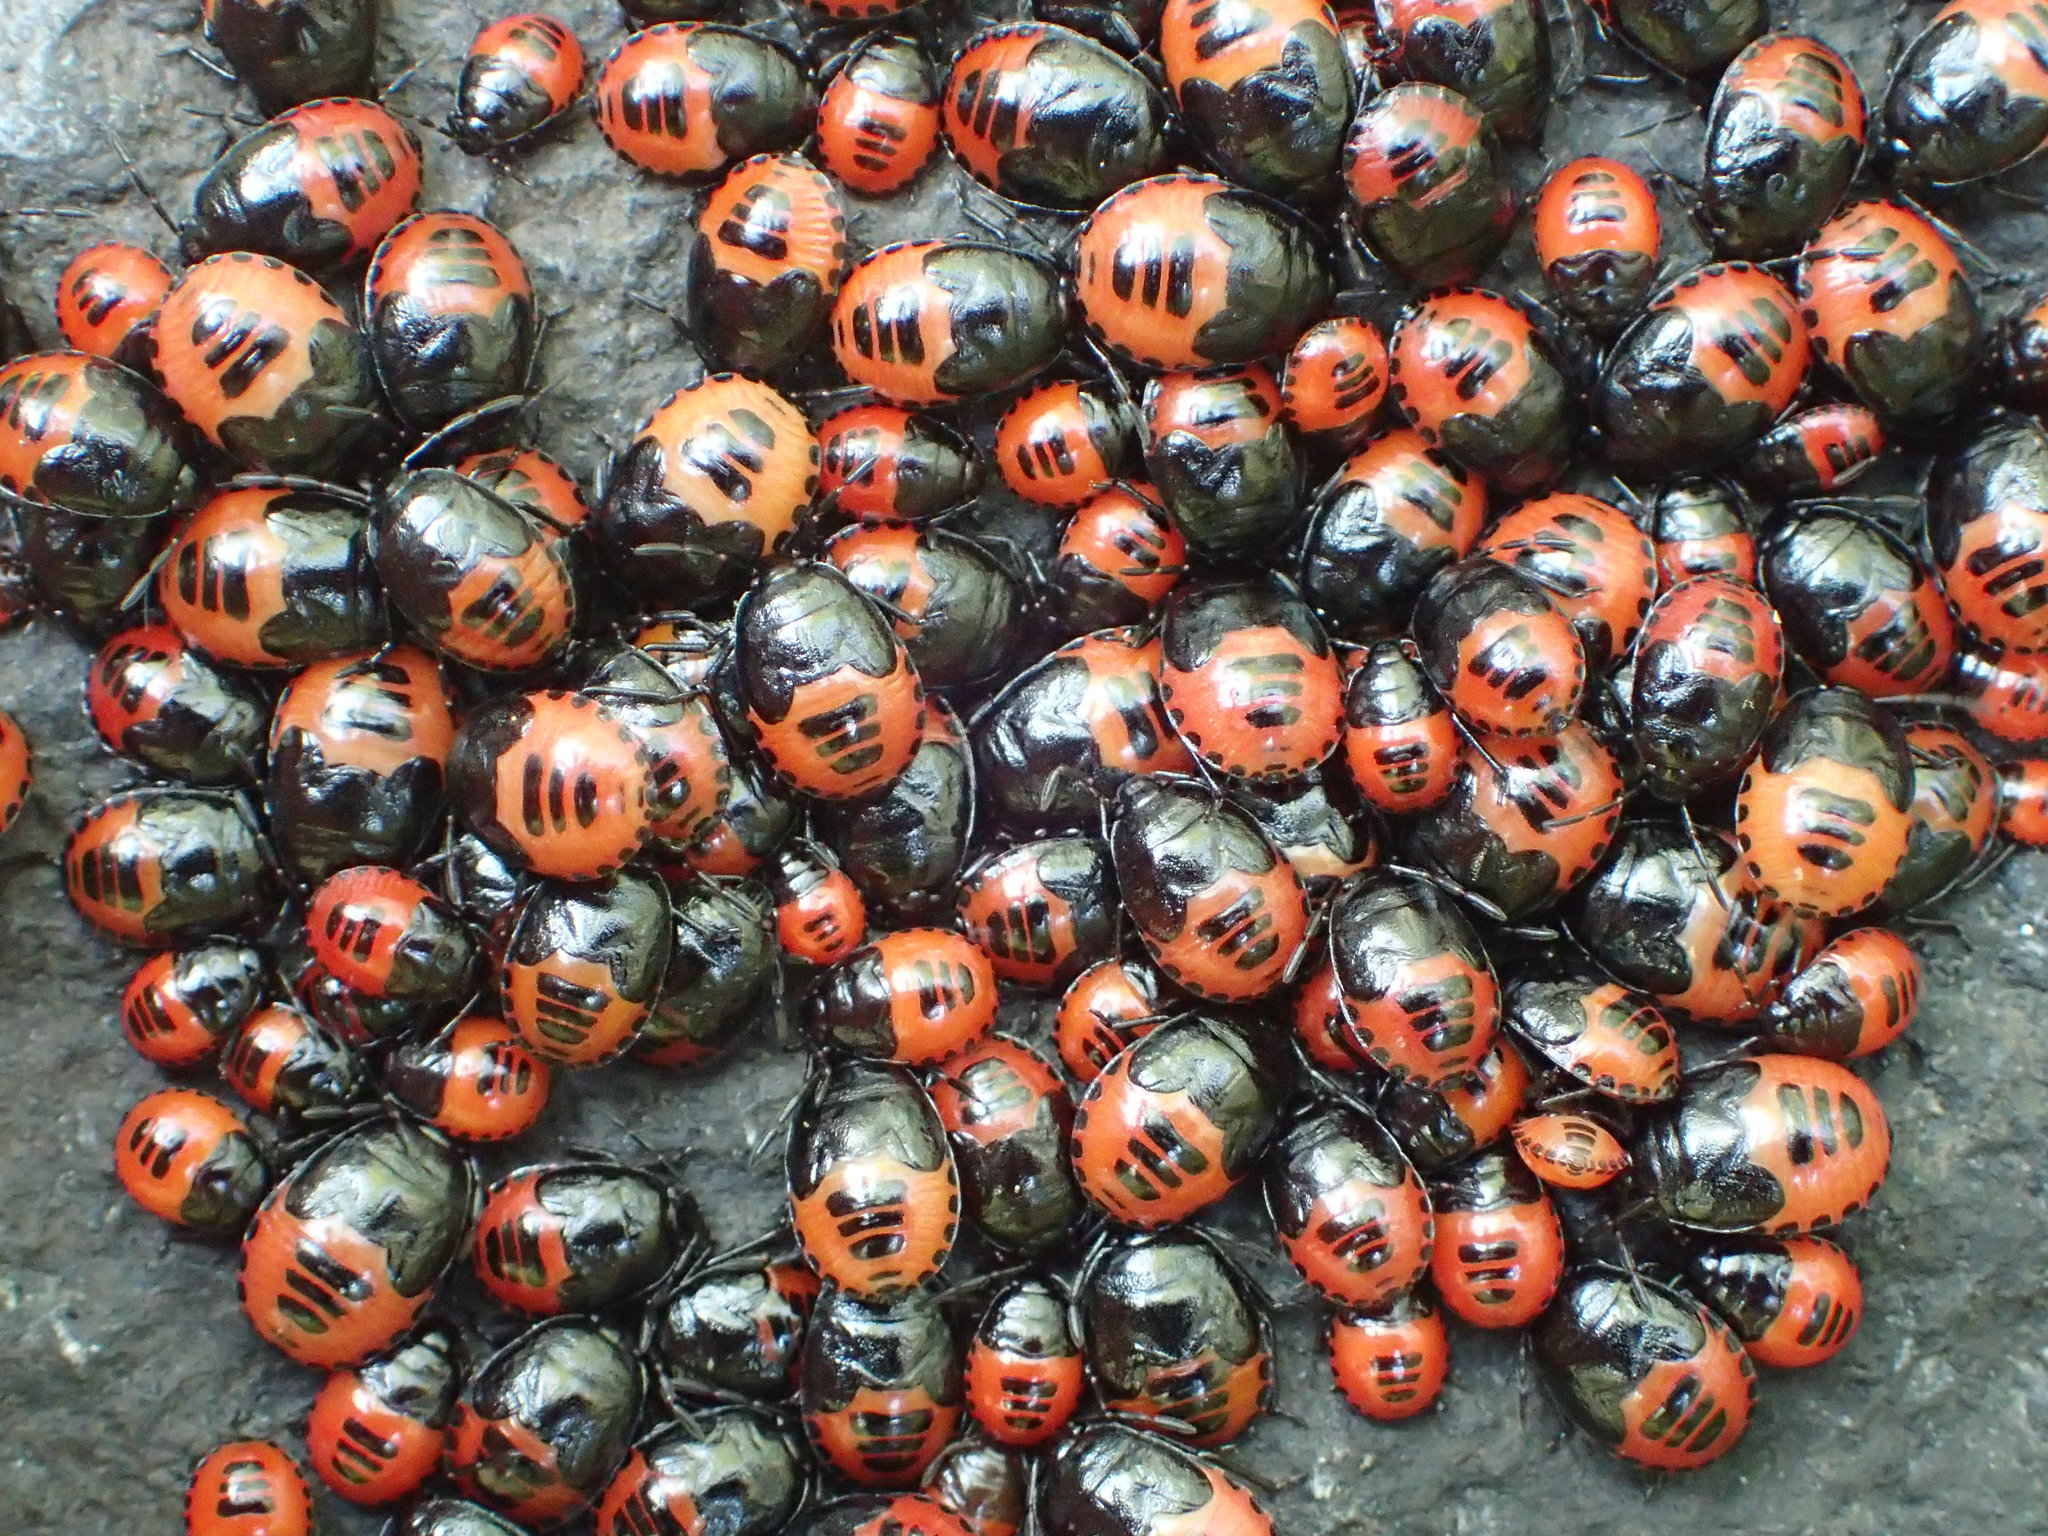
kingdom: Animalia
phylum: Arthropoda
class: Insecta
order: Hemiptera
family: Cydnidae
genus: Sehirus
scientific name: Sehirus cinctus
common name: White-margined burrower bug
